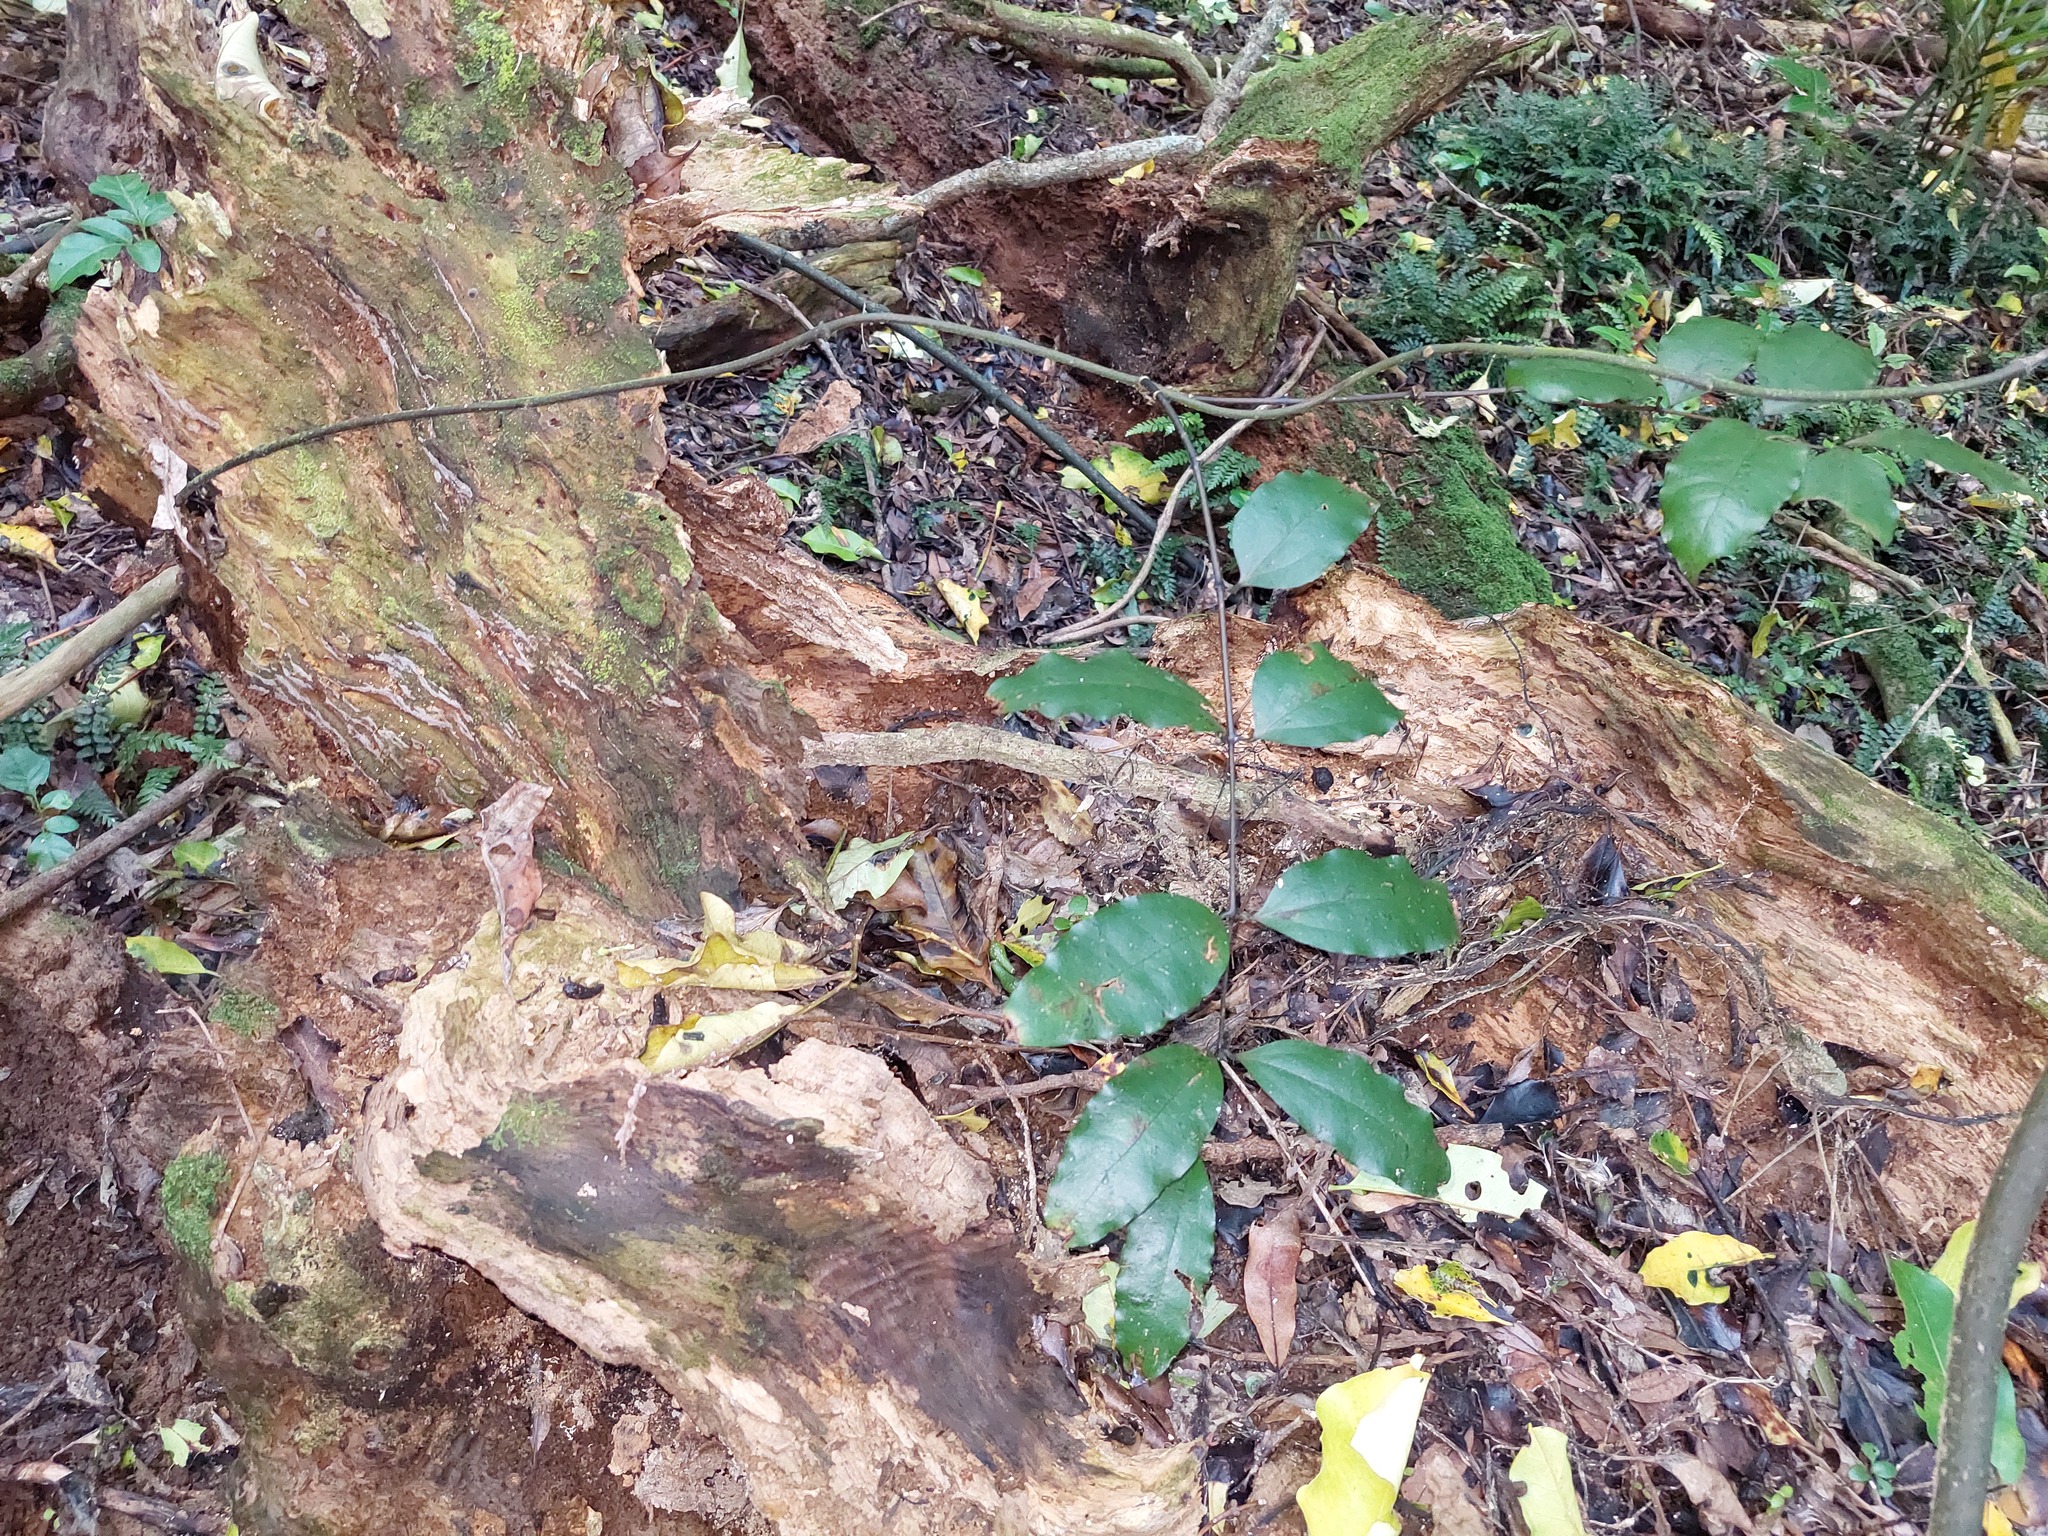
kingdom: Plantae
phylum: Tracheophyta
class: Liliopsida
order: Liliales
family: Ripogonaceae
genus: Ripogonum
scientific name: Ripogonum scandens
